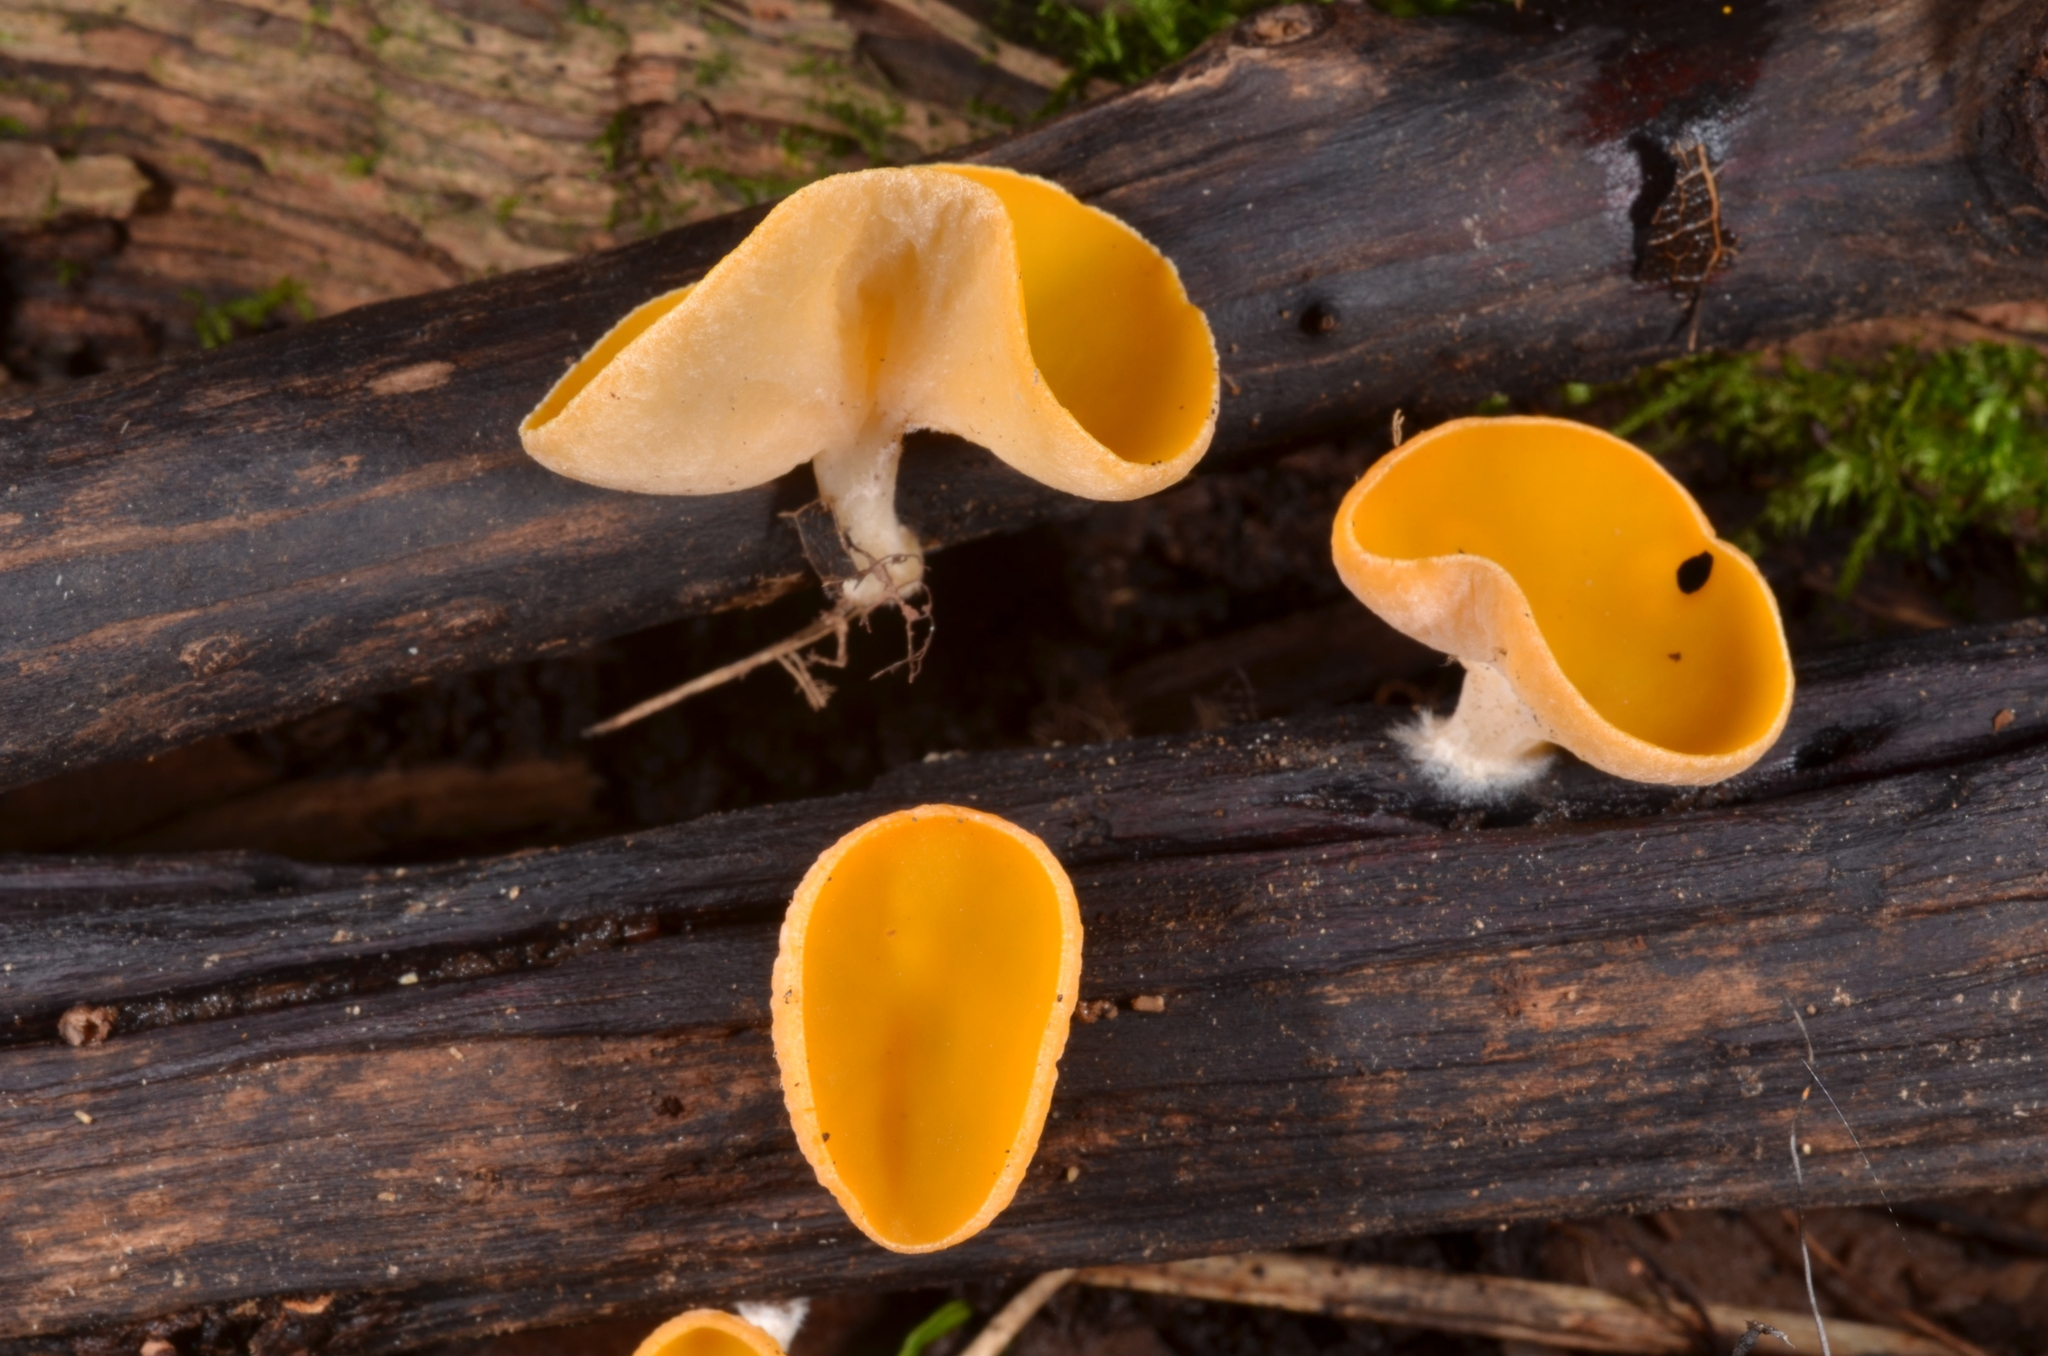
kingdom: Fungi
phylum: Ascomycota
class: Pezizomycetes
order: Pezizales
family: Sarcoscyphaceae
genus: Sarcoscypha
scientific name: Sarcoscypha korfiana
